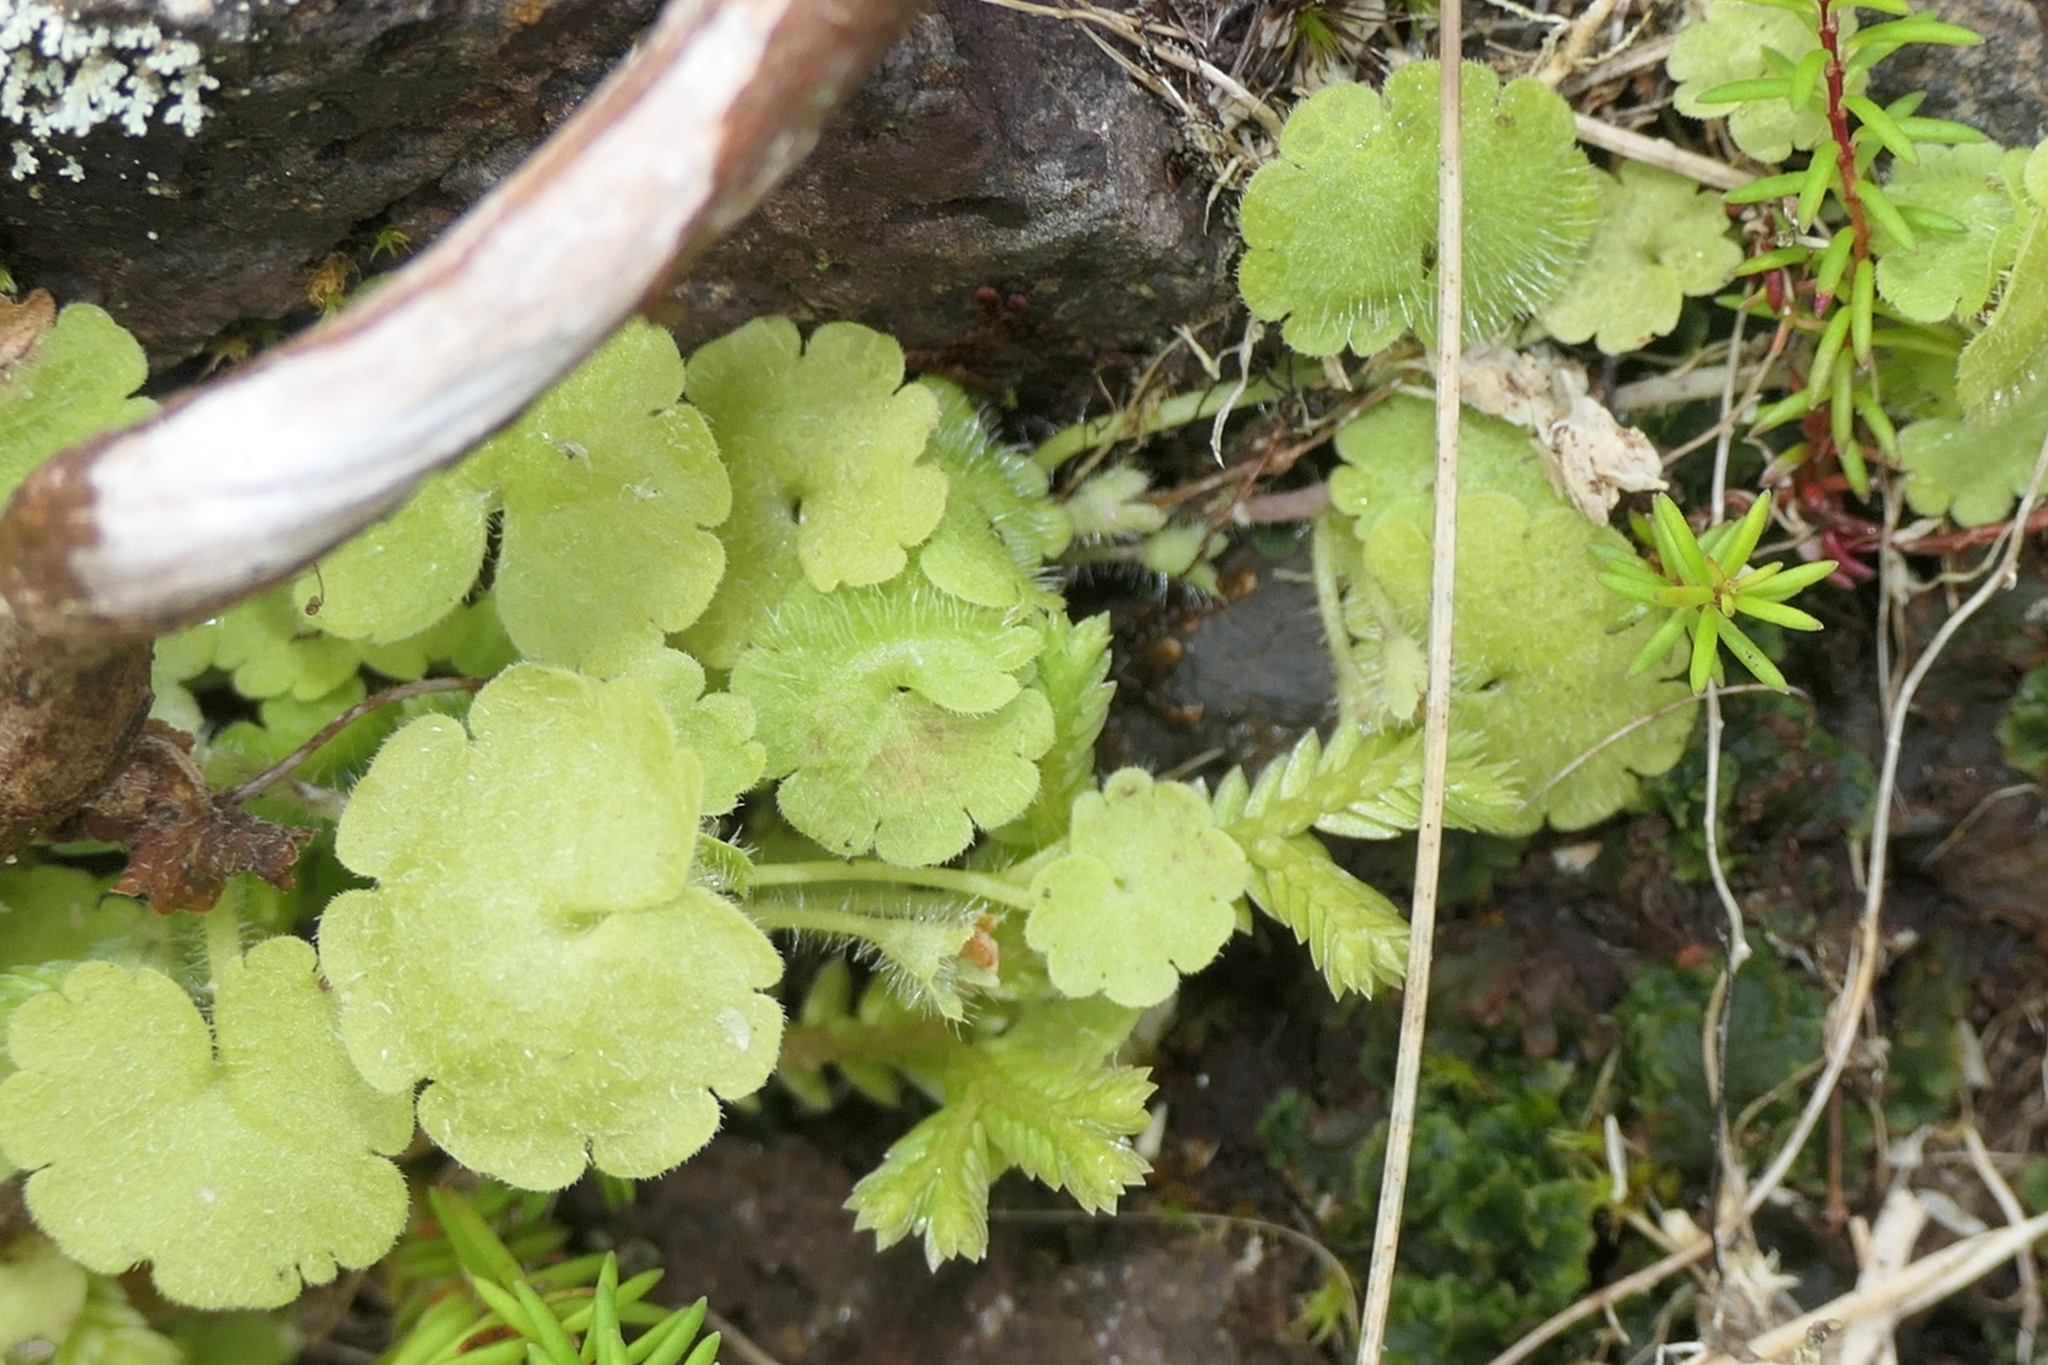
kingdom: Plantae
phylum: Tracheophyta
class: Magnoliopsida
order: Lamiales
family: Plantaginaceae
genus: Sibthorpia
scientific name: Sibthorpia europaea
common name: Cornish moneywort
